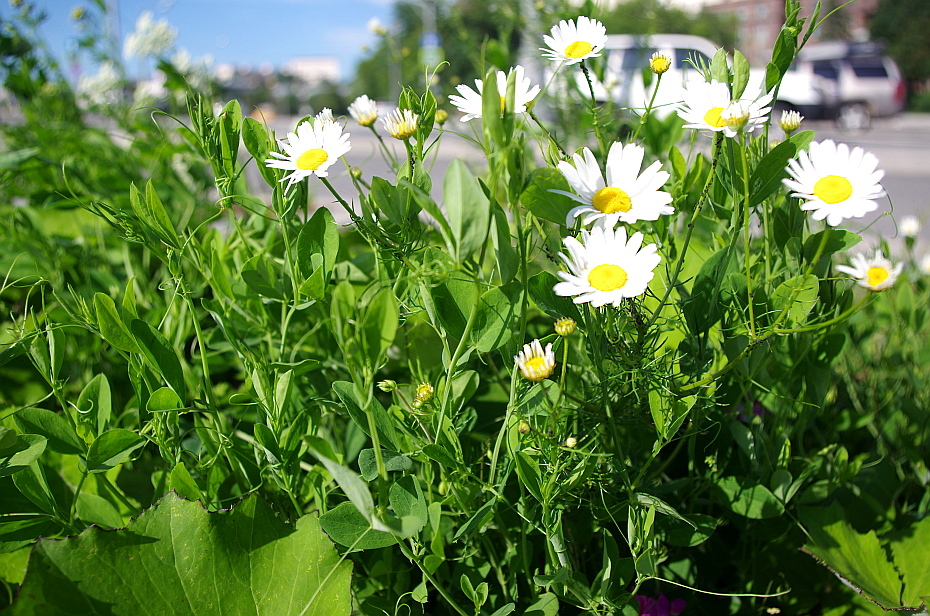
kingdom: Plantae
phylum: Tracheophyta
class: Magnoliopsida
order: Asterales
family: Asteraceae
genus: Tripleurospermum
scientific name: Tripleurospermum inodorum
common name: Scentless mayweed
